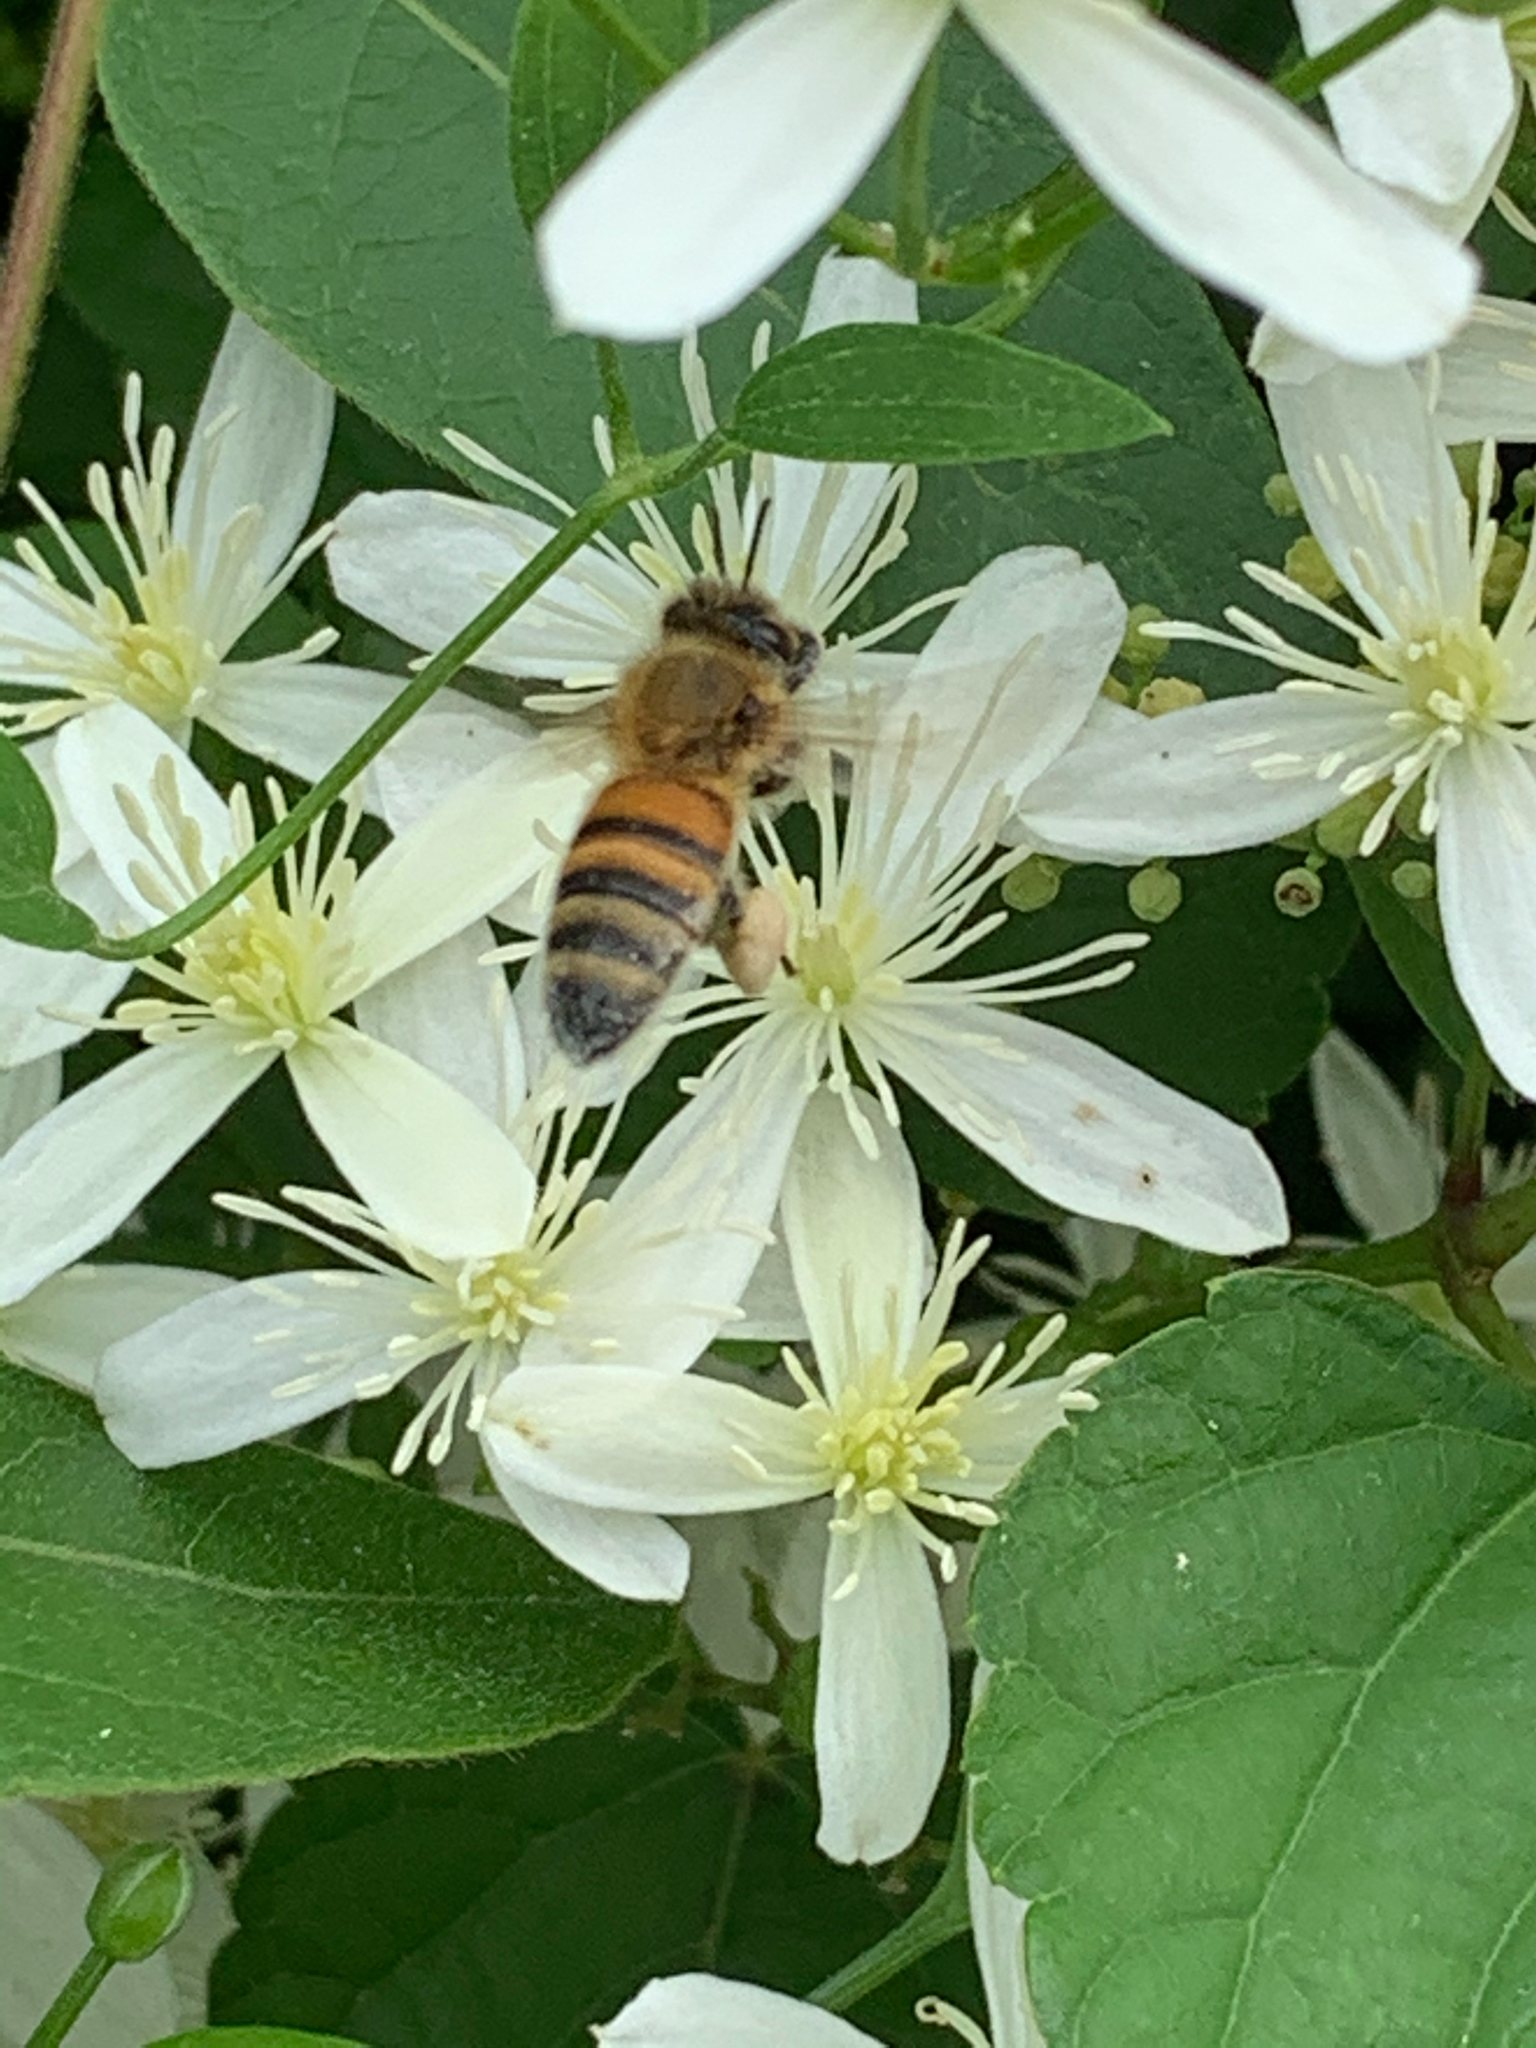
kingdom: Animalia
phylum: Arthropoda
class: Insecta
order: Hymenoptera
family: Apidae
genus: Apis
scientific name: Apis mellifera
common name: Honey bee
